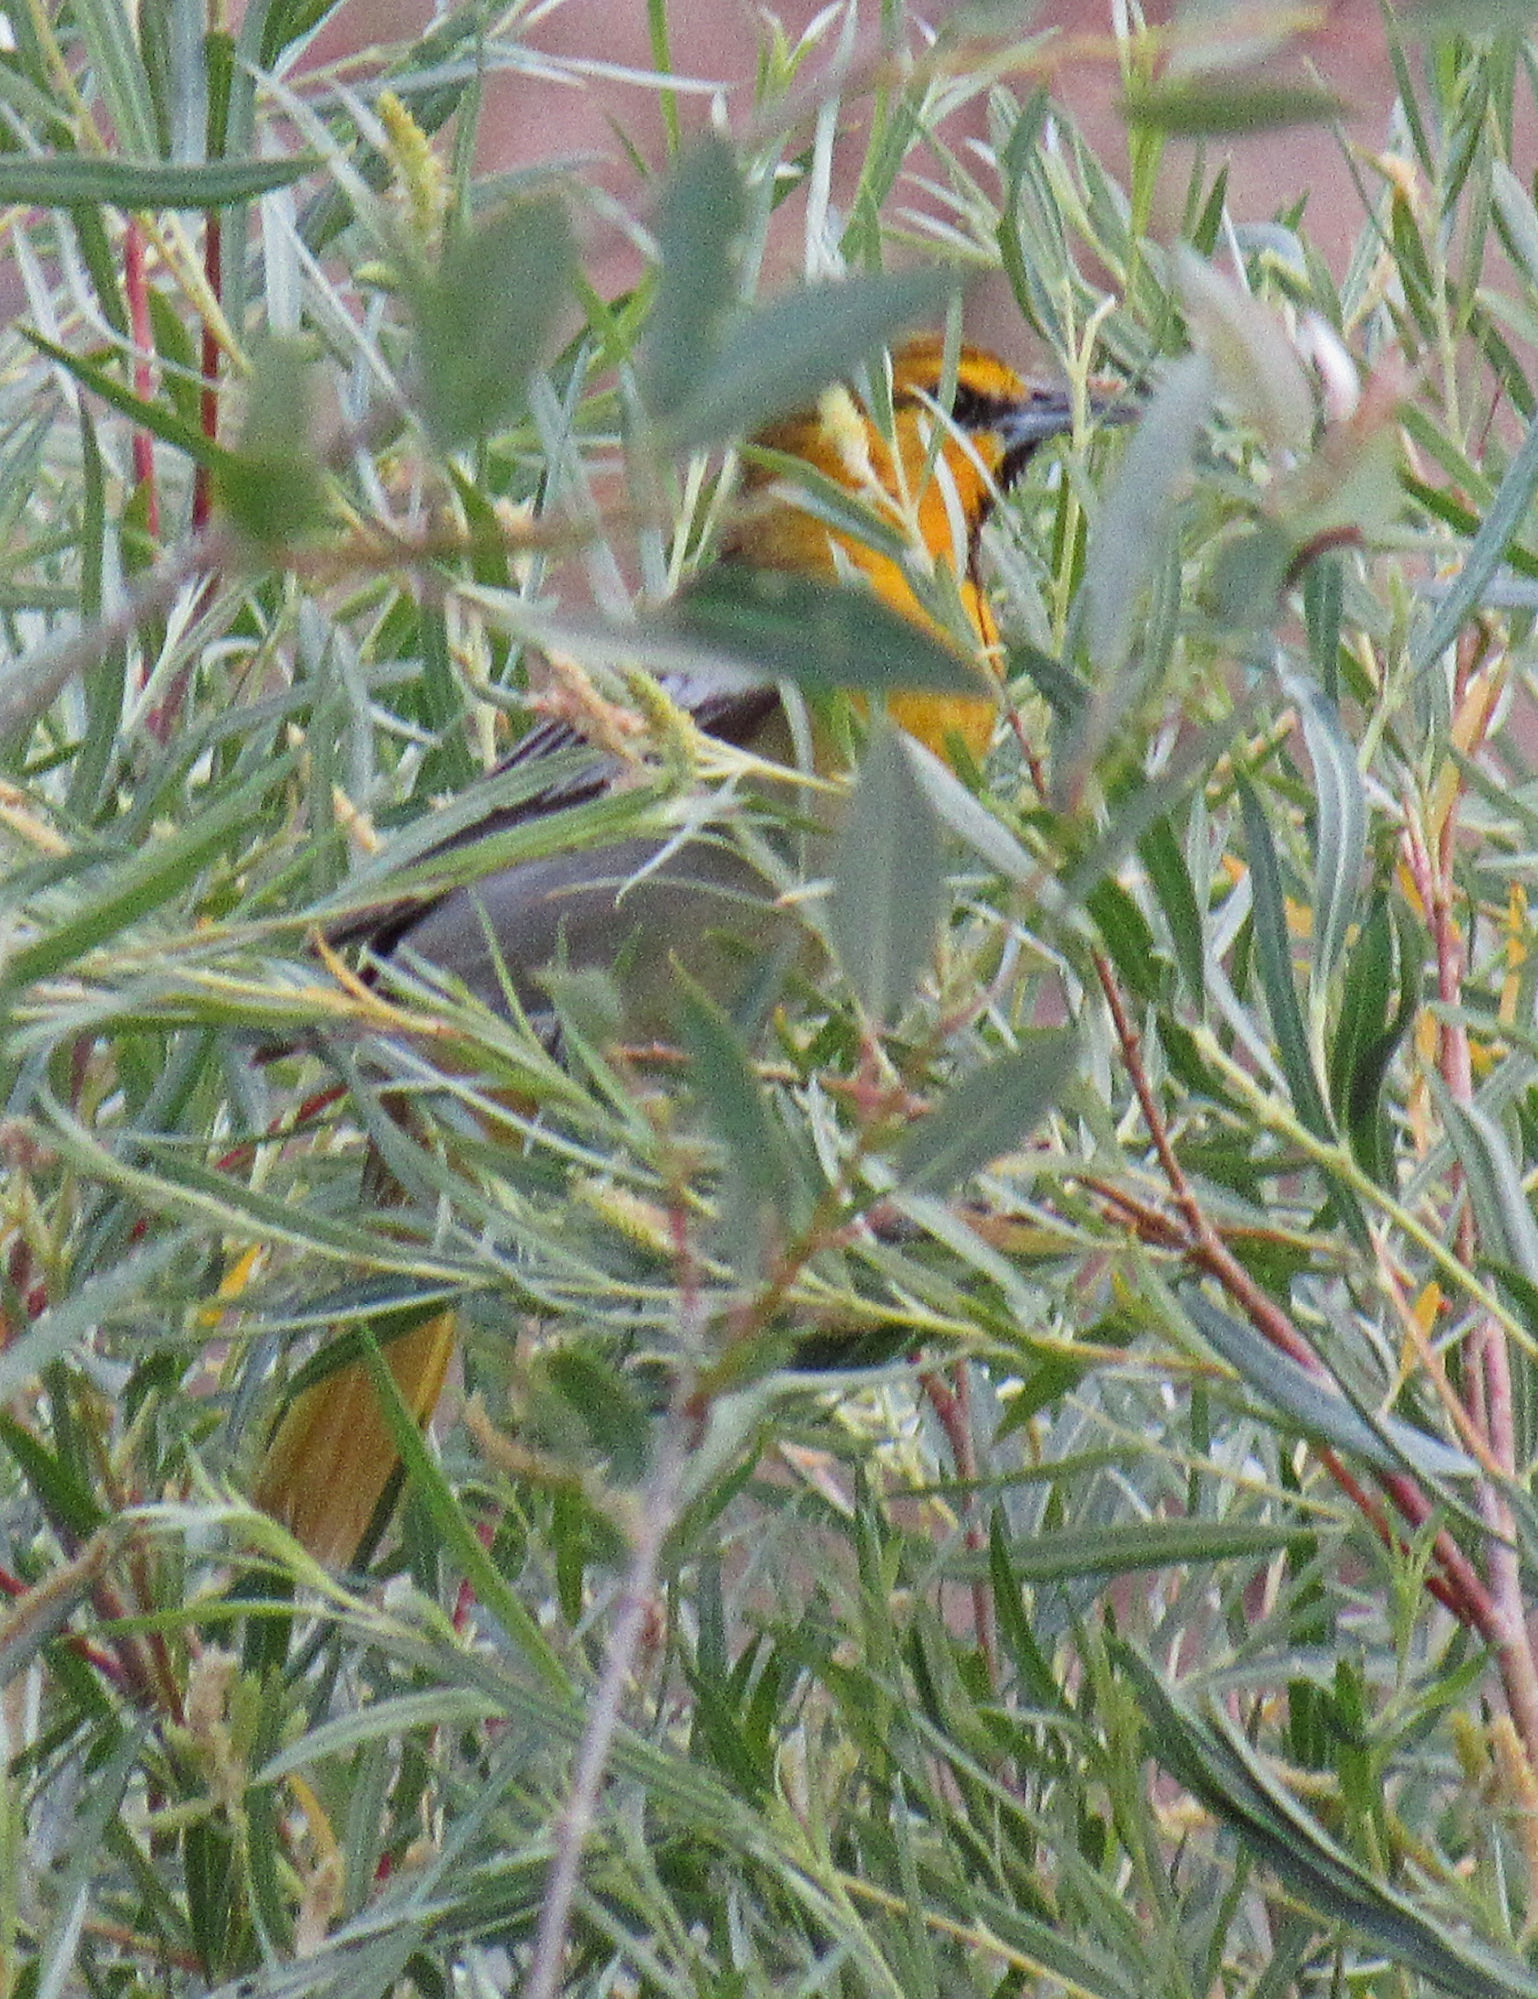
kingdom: Animalia
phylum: Chordata
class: Aves
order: Passeriformes
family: Icteridae
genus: Icterus
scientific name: Icterus bullockii
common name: Bullock's oriole
